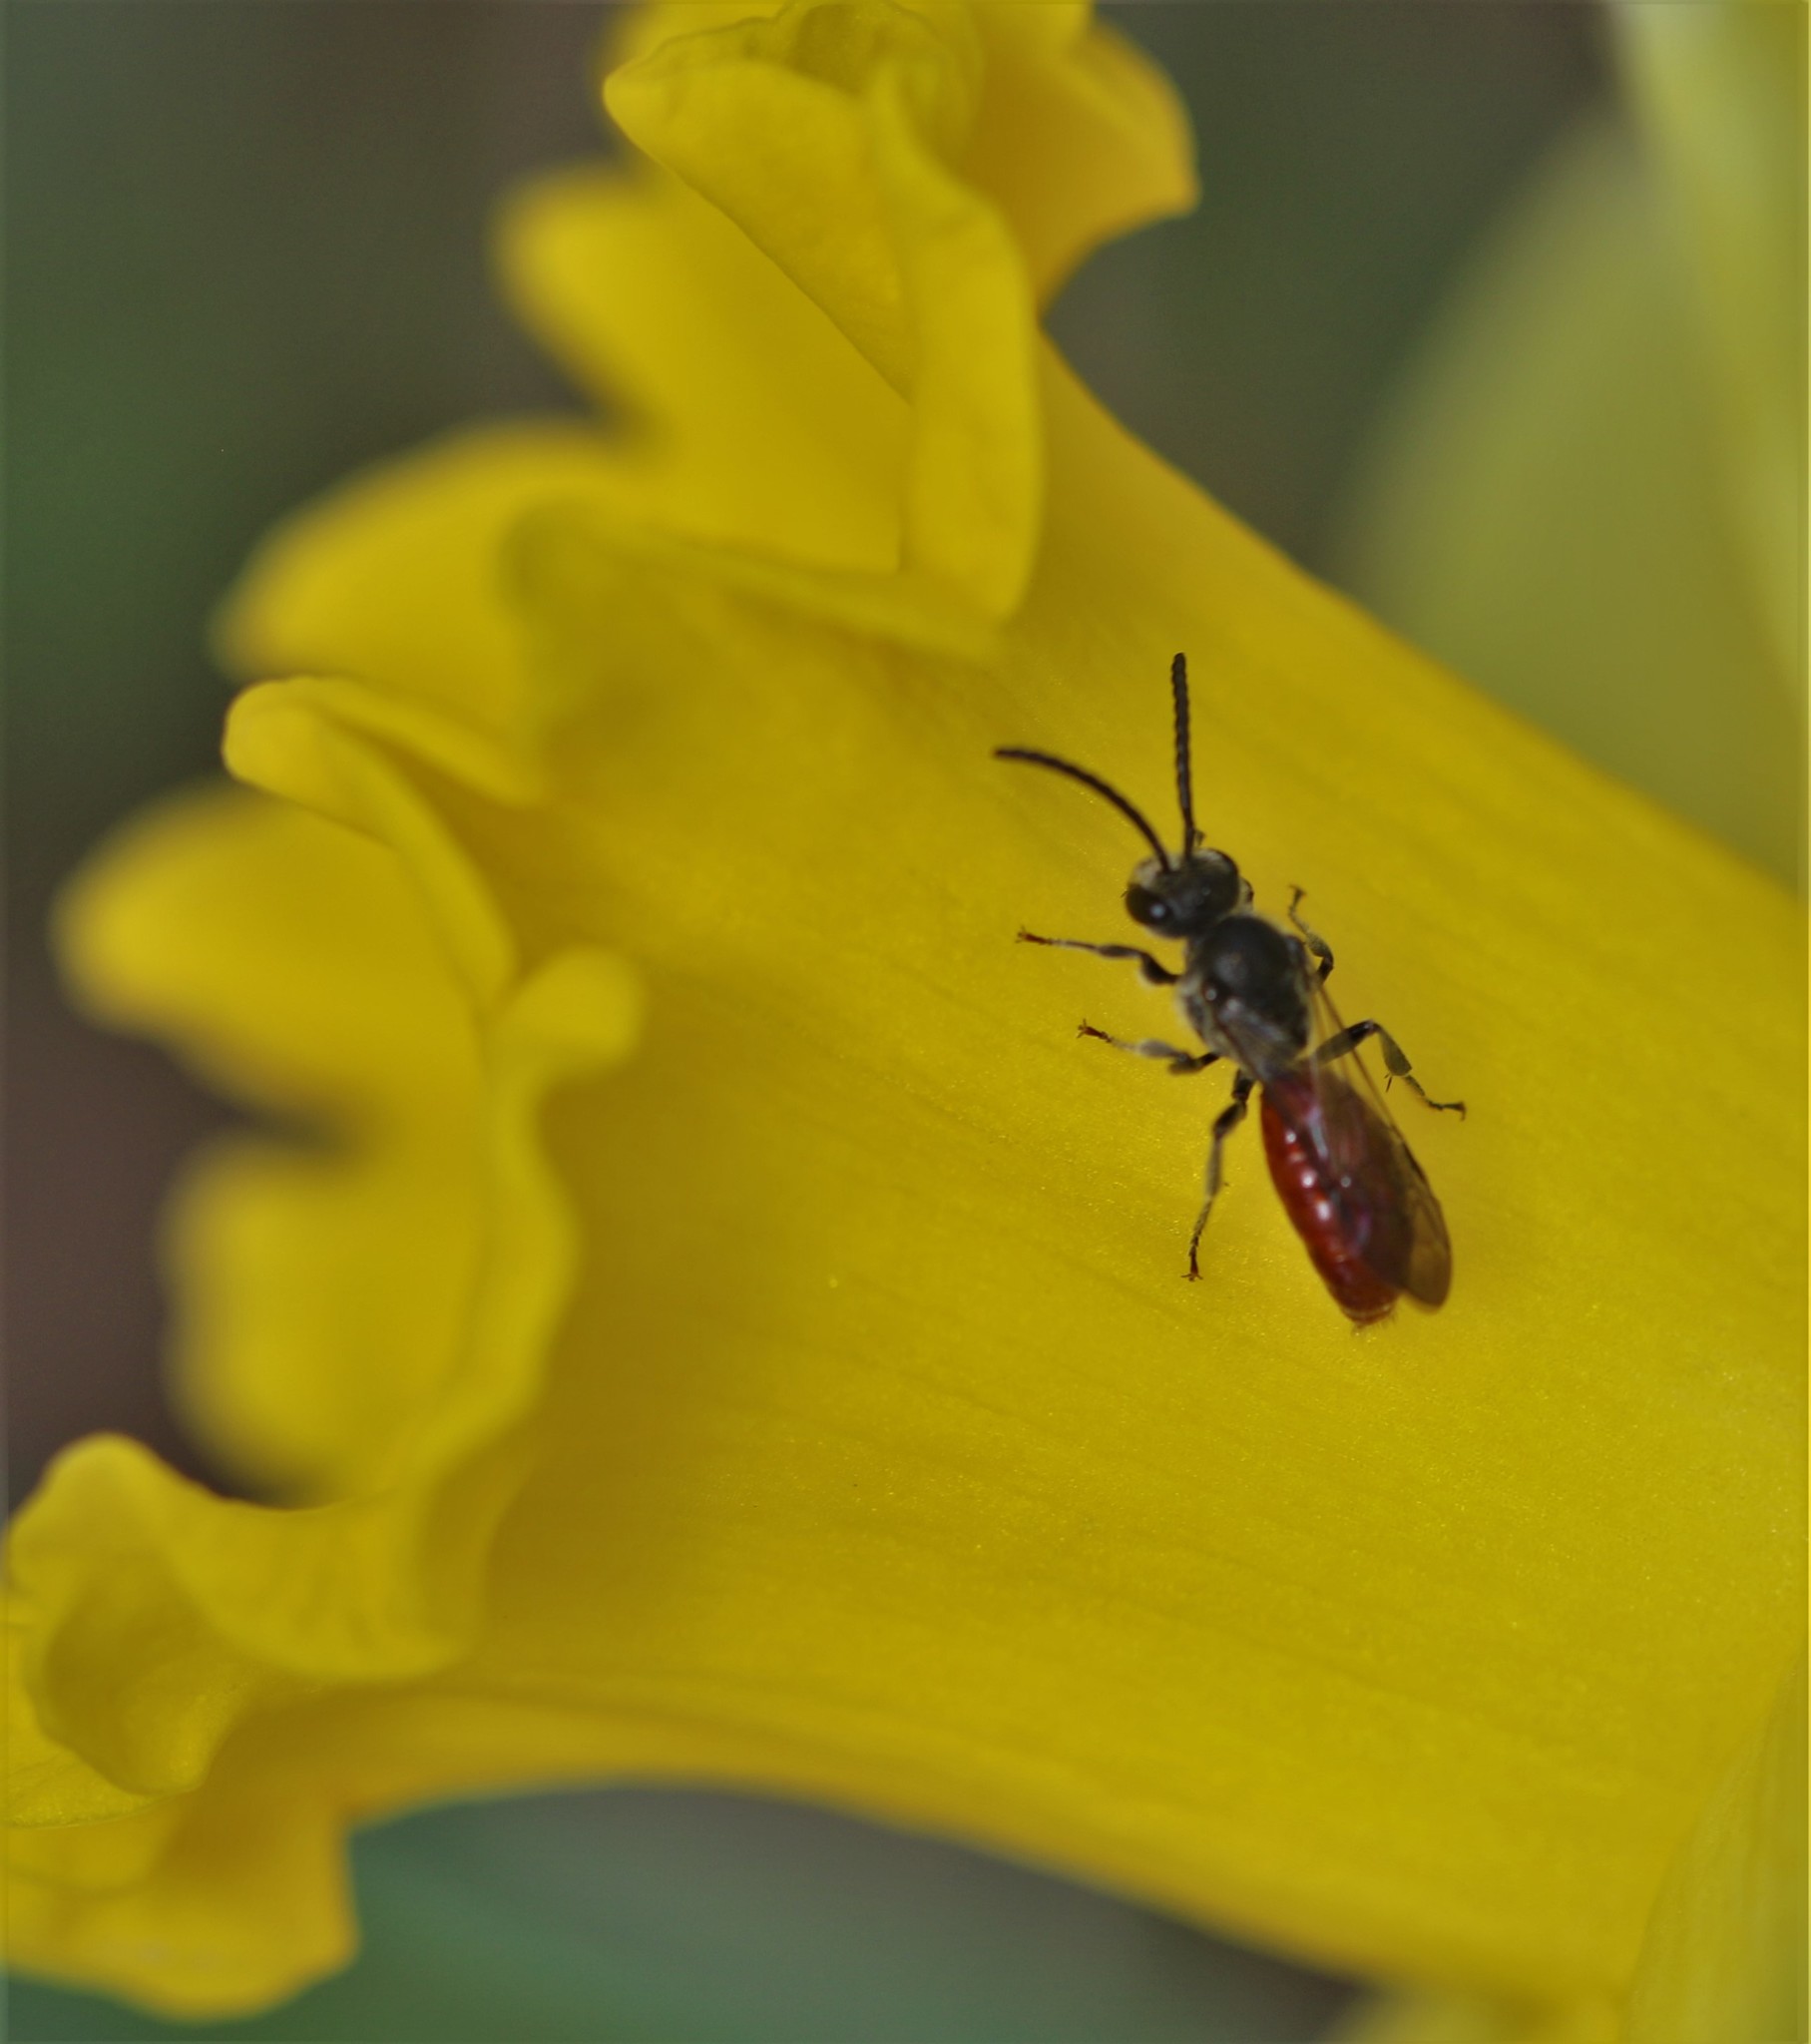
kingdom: Animalia
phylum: Arthropoda
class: Insecta
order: Hymenoptera
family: Halictidae
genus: Sphecodes
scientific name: Sphecodes ranunculi
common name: Buttercup cuckoo sweat bee
